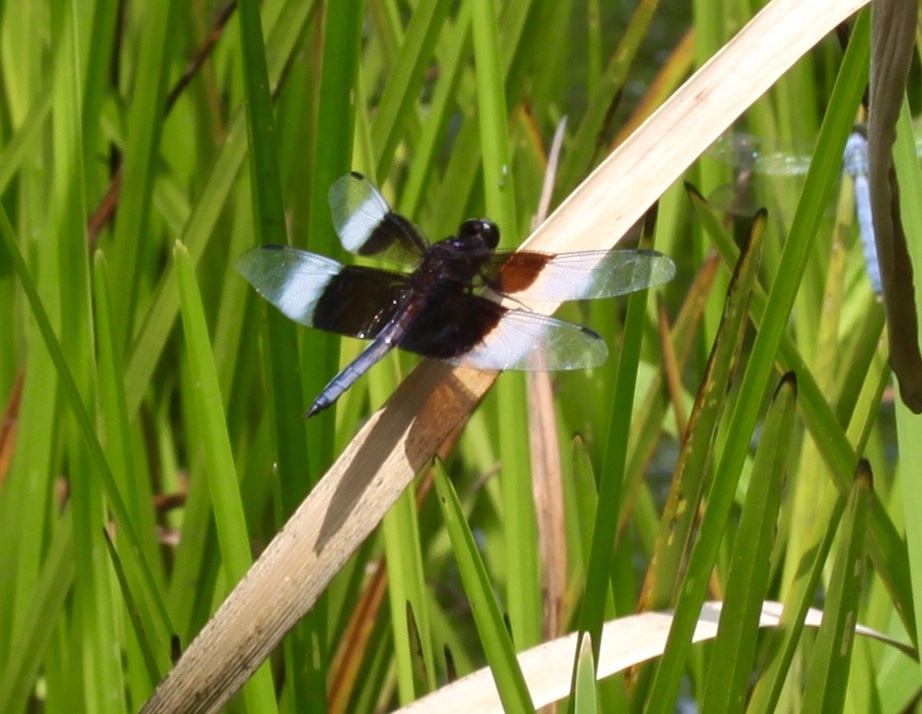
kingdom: Animalia
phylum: Arthropoda
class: Insecta
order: Odonata
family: Libellulidae
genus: Libellula
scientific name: Libellula luctuosa
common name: Widow skimmer
